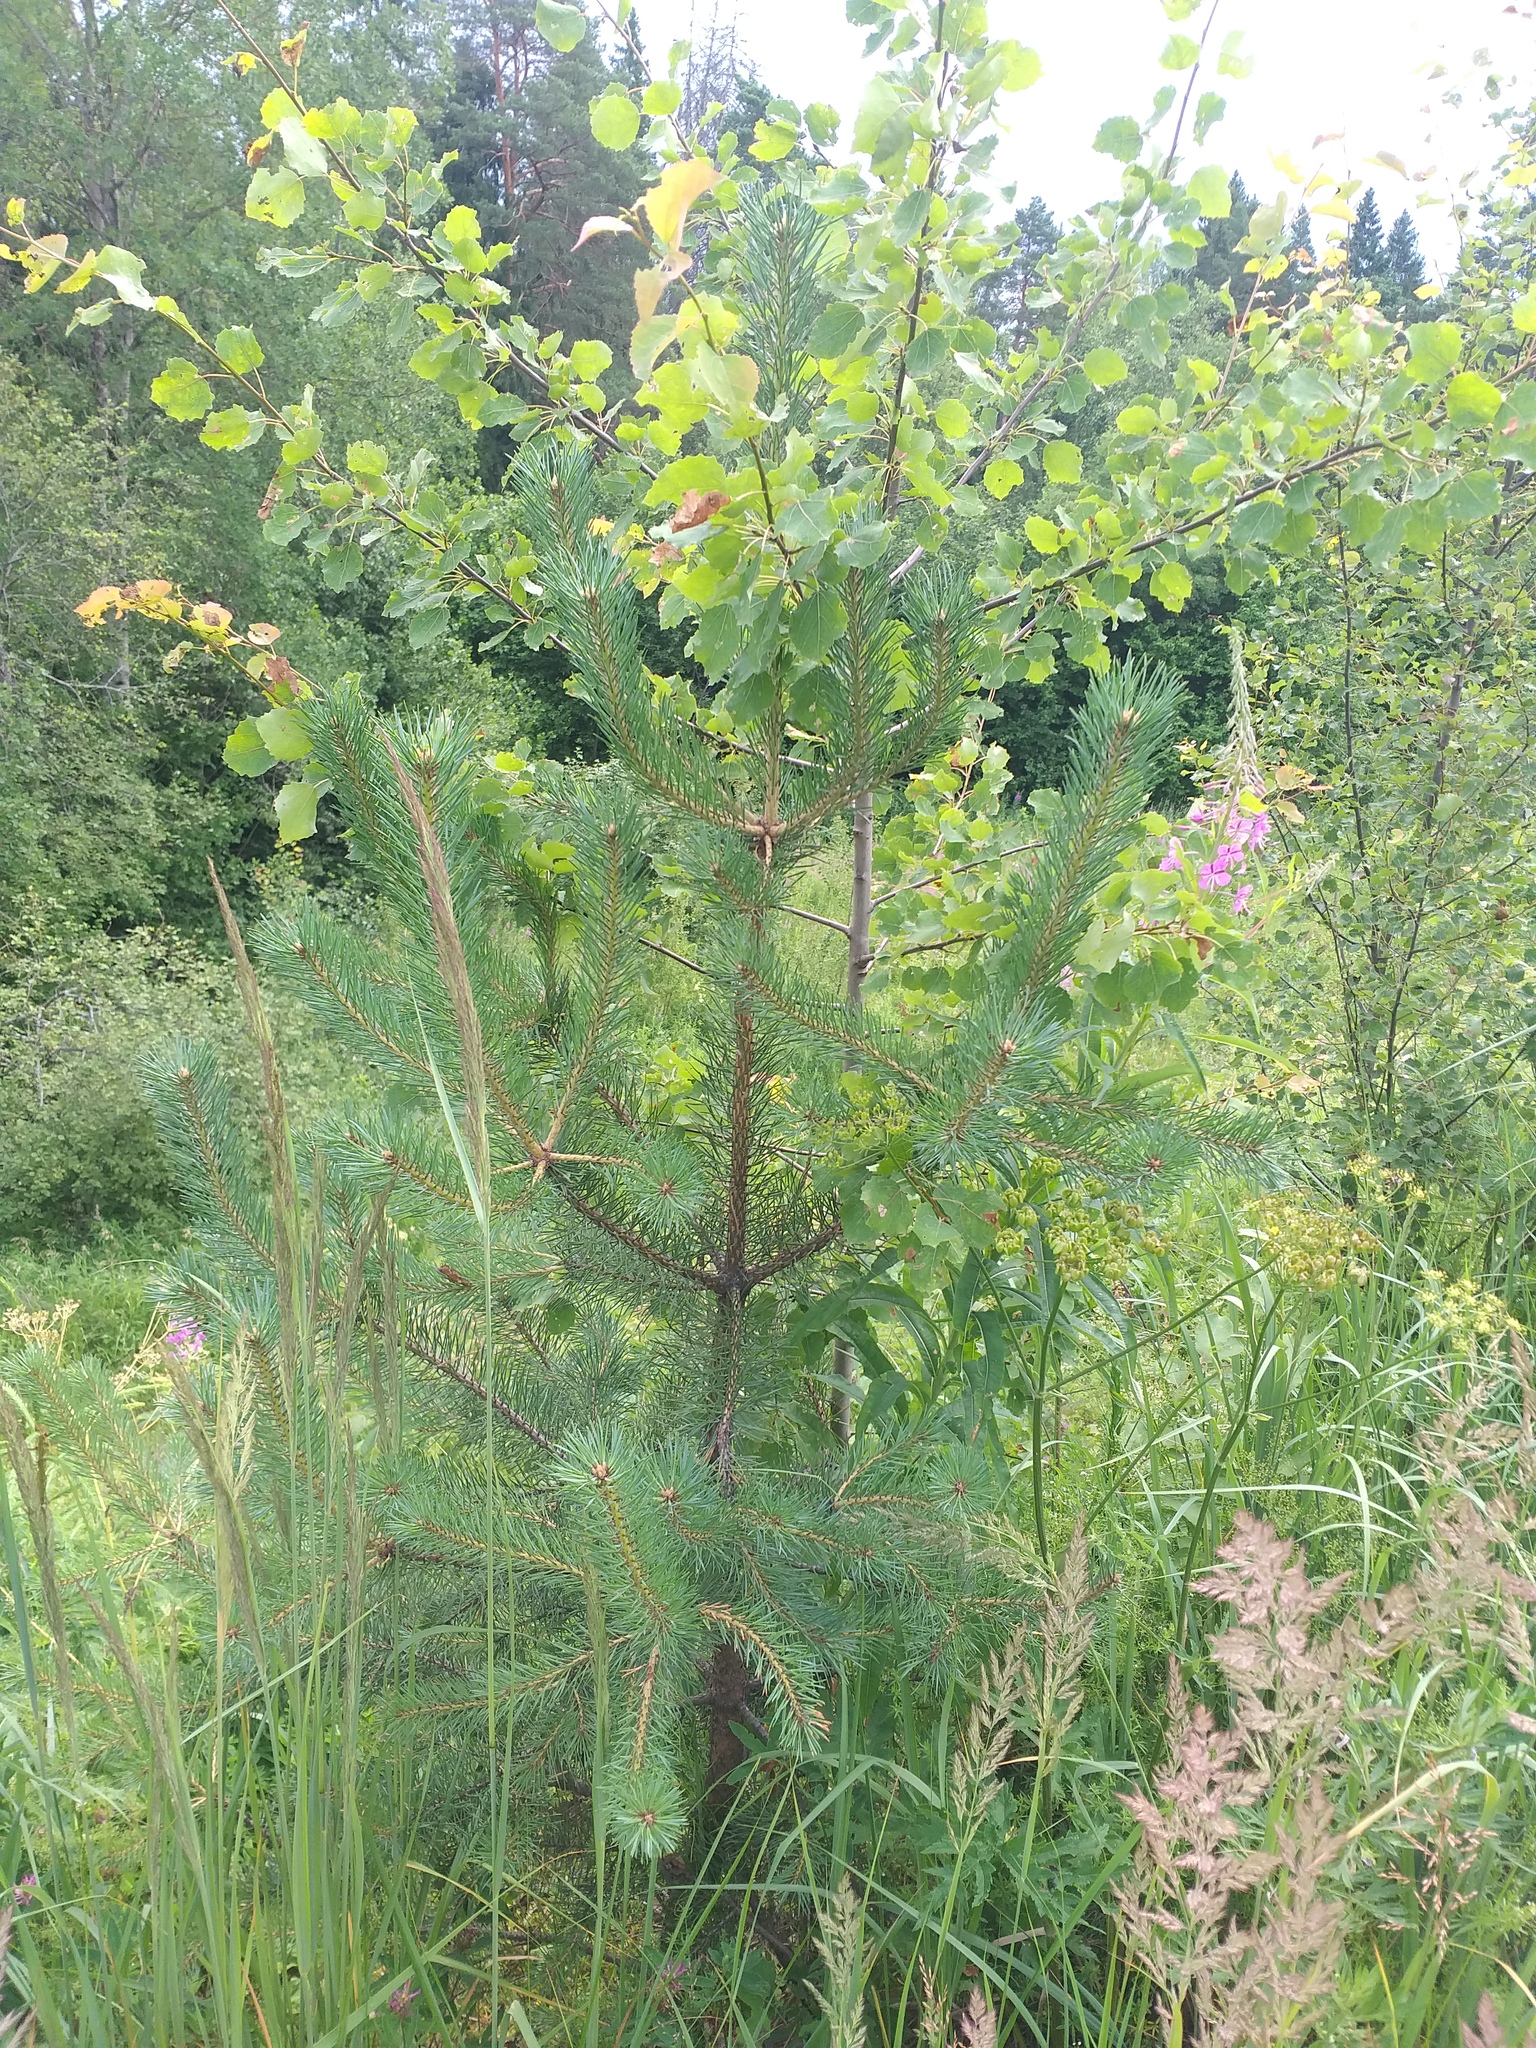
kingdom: Plantae
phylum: Tracheophyta
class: Pinopsida
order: Pinales
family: Pinaceae
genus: Pinus
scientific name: Pinus sylvestris
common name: Scots pine
